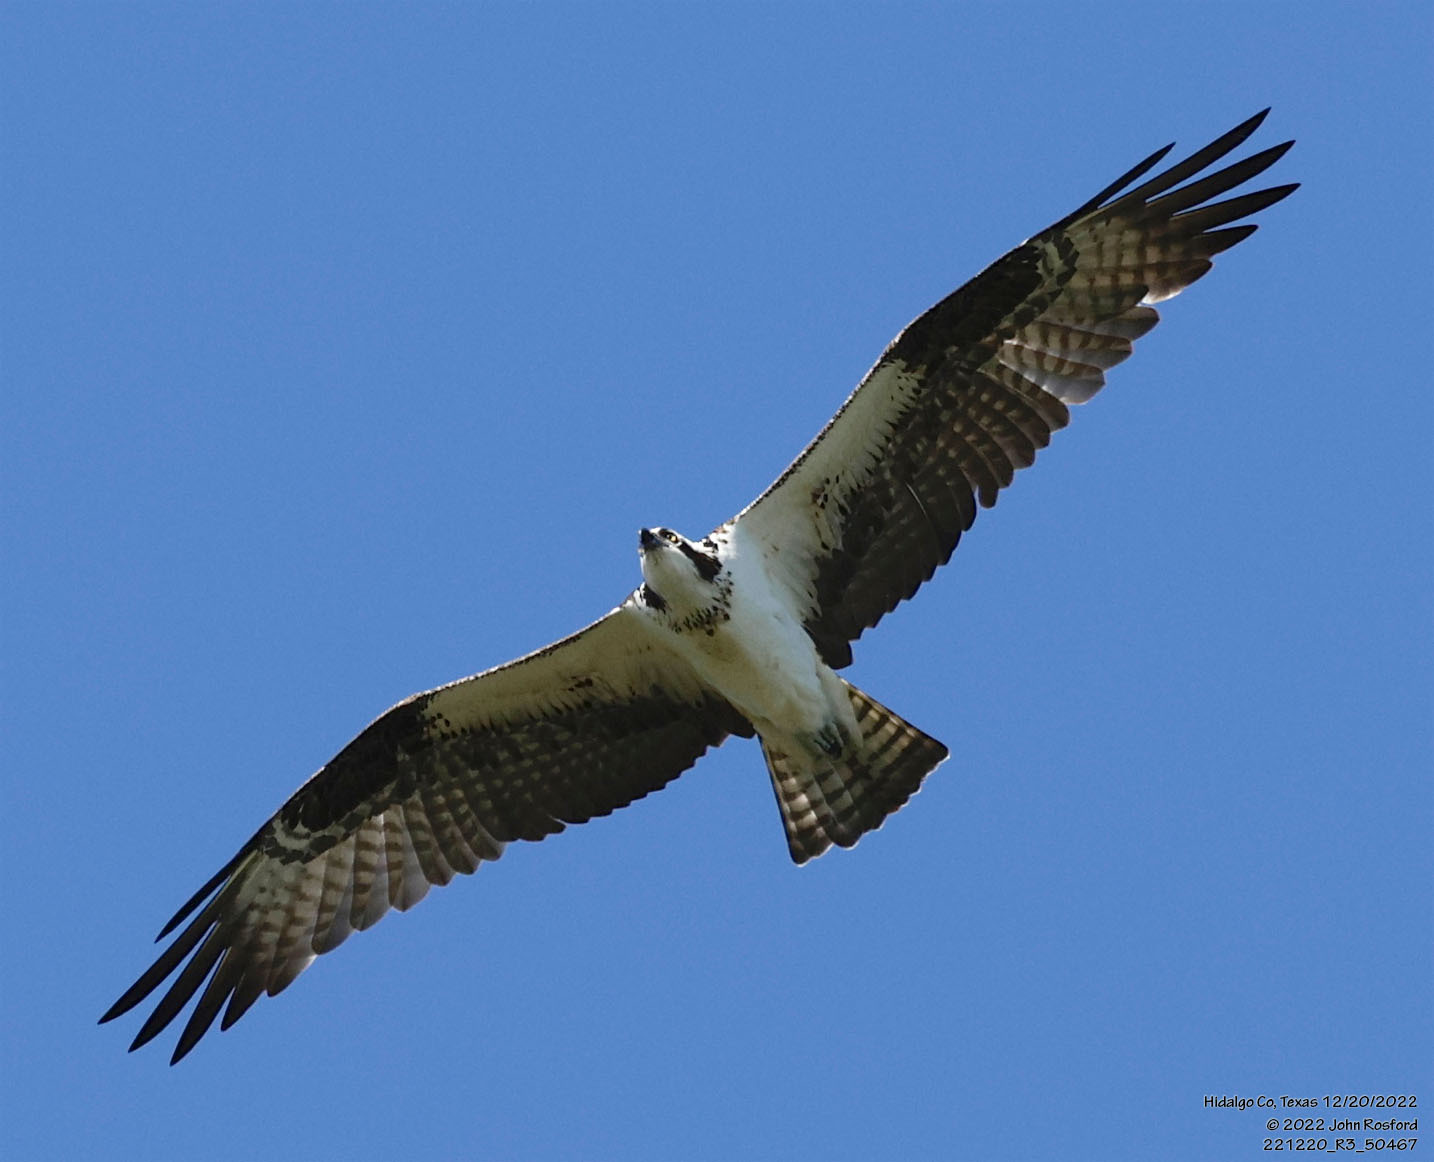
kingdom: Animalia
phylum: Chordata
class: Aves
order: Accipitriformes
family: Pandionidae
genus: Pandion
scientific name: Pandion haliaetus
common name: Osprey
